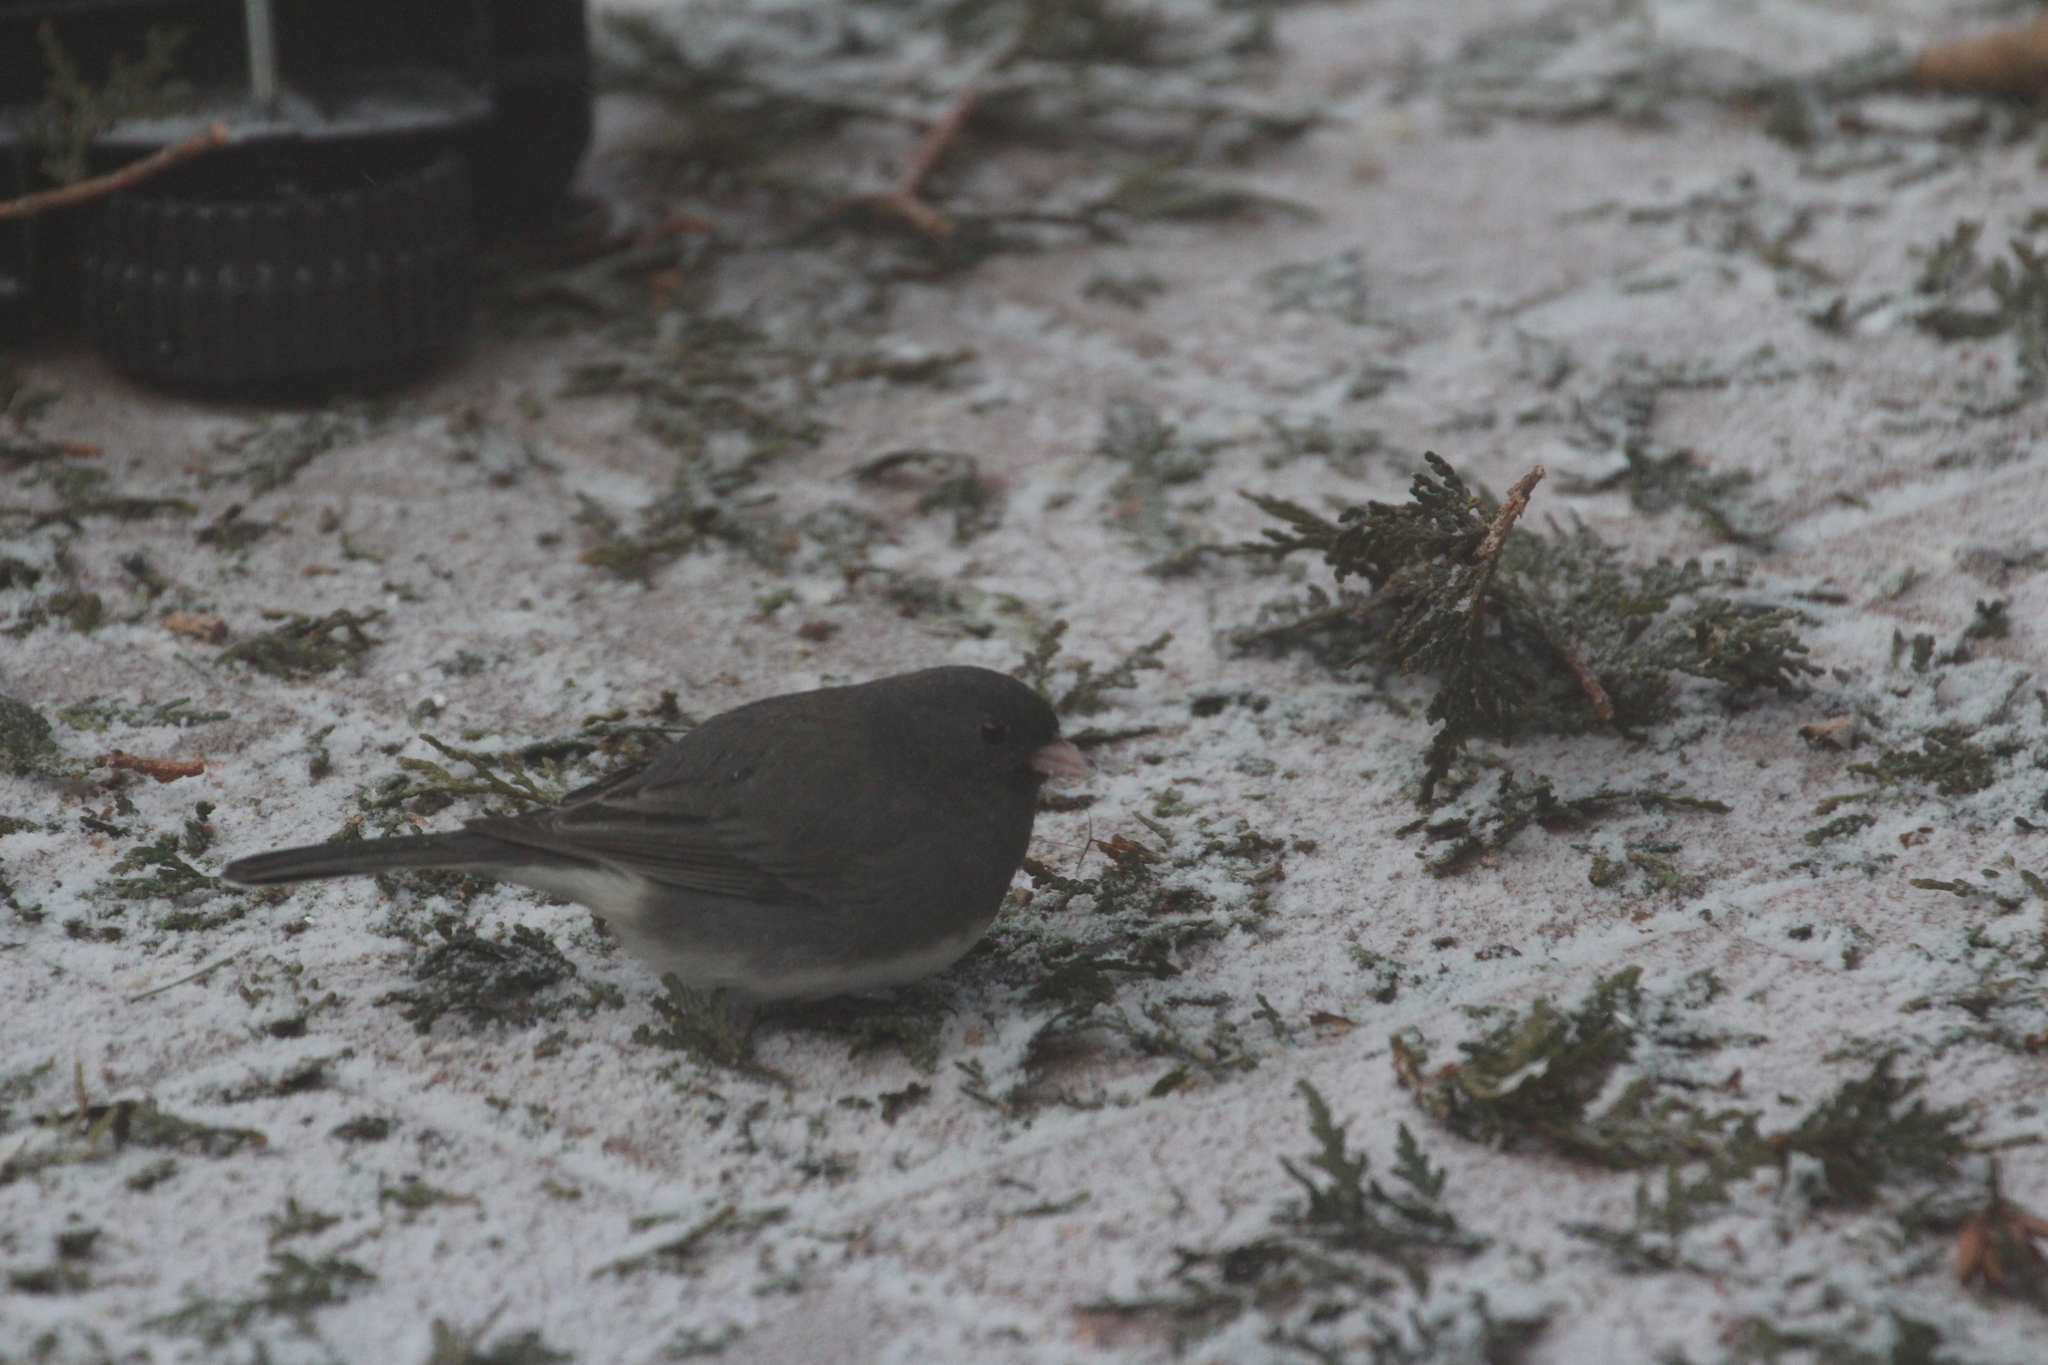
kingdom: Animalia
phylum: Chordata
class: Aves
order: Passeriformes
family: Passerellidae
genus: Junco
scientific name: Junco hyemalis
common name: Dark-eyed junco
